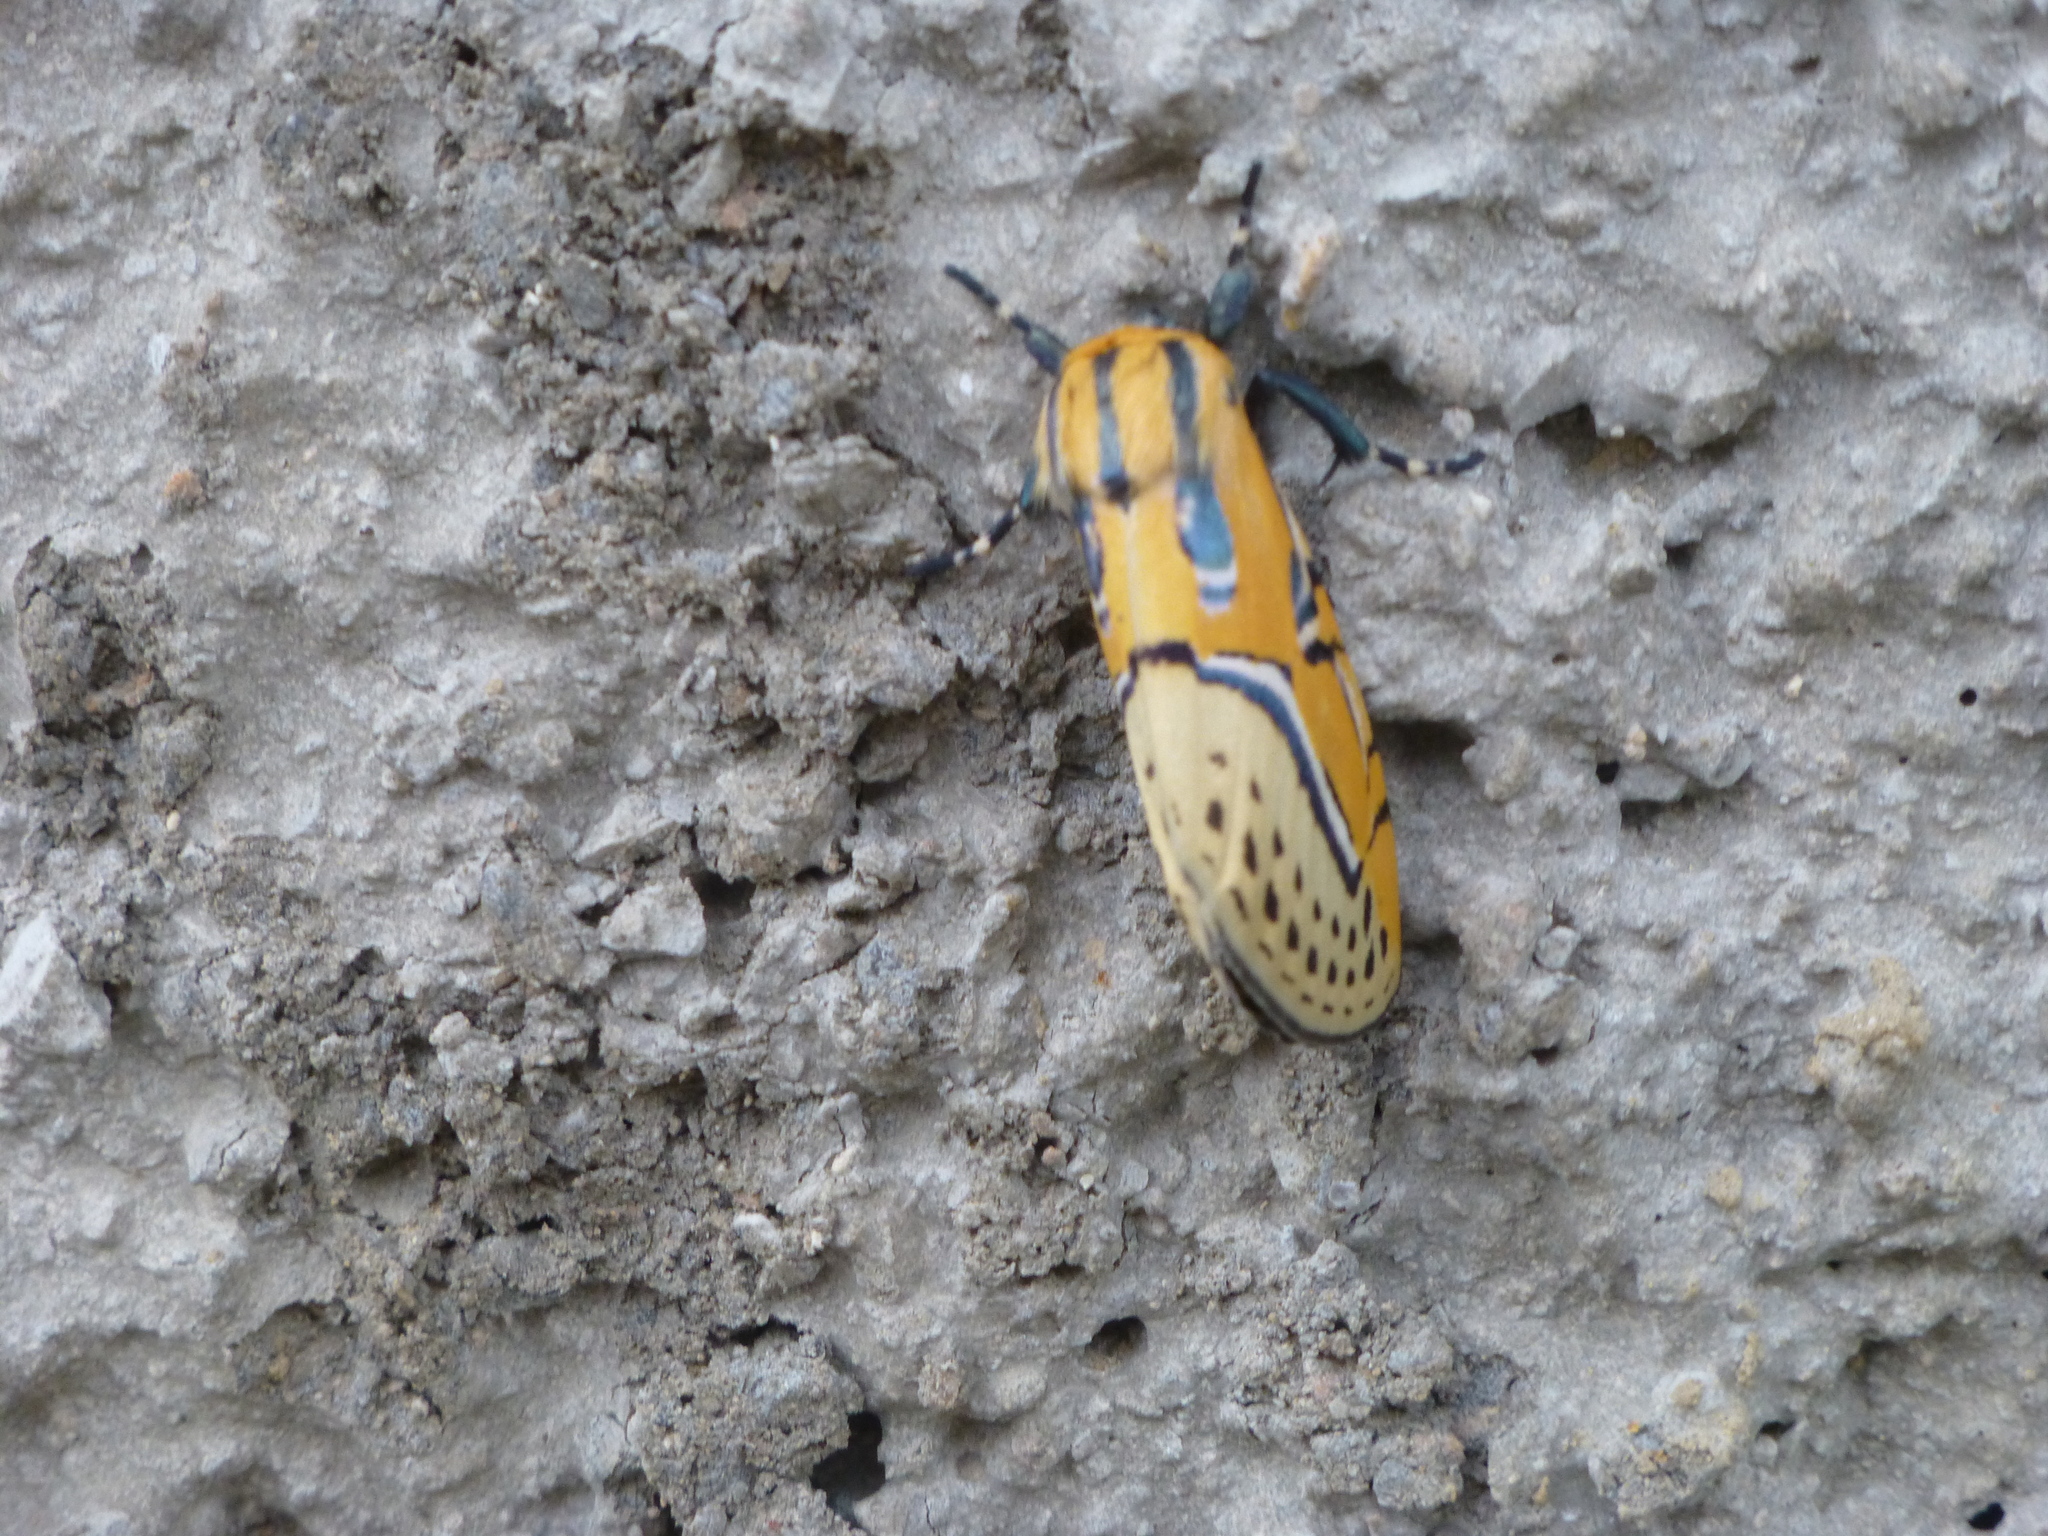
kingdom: Animalia
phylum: Arthropoda
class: Insecta
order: Lepidoptera
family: Erebidae
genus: Diphthera
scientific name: Diphthera festiva
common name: Hieroglyphic moth
